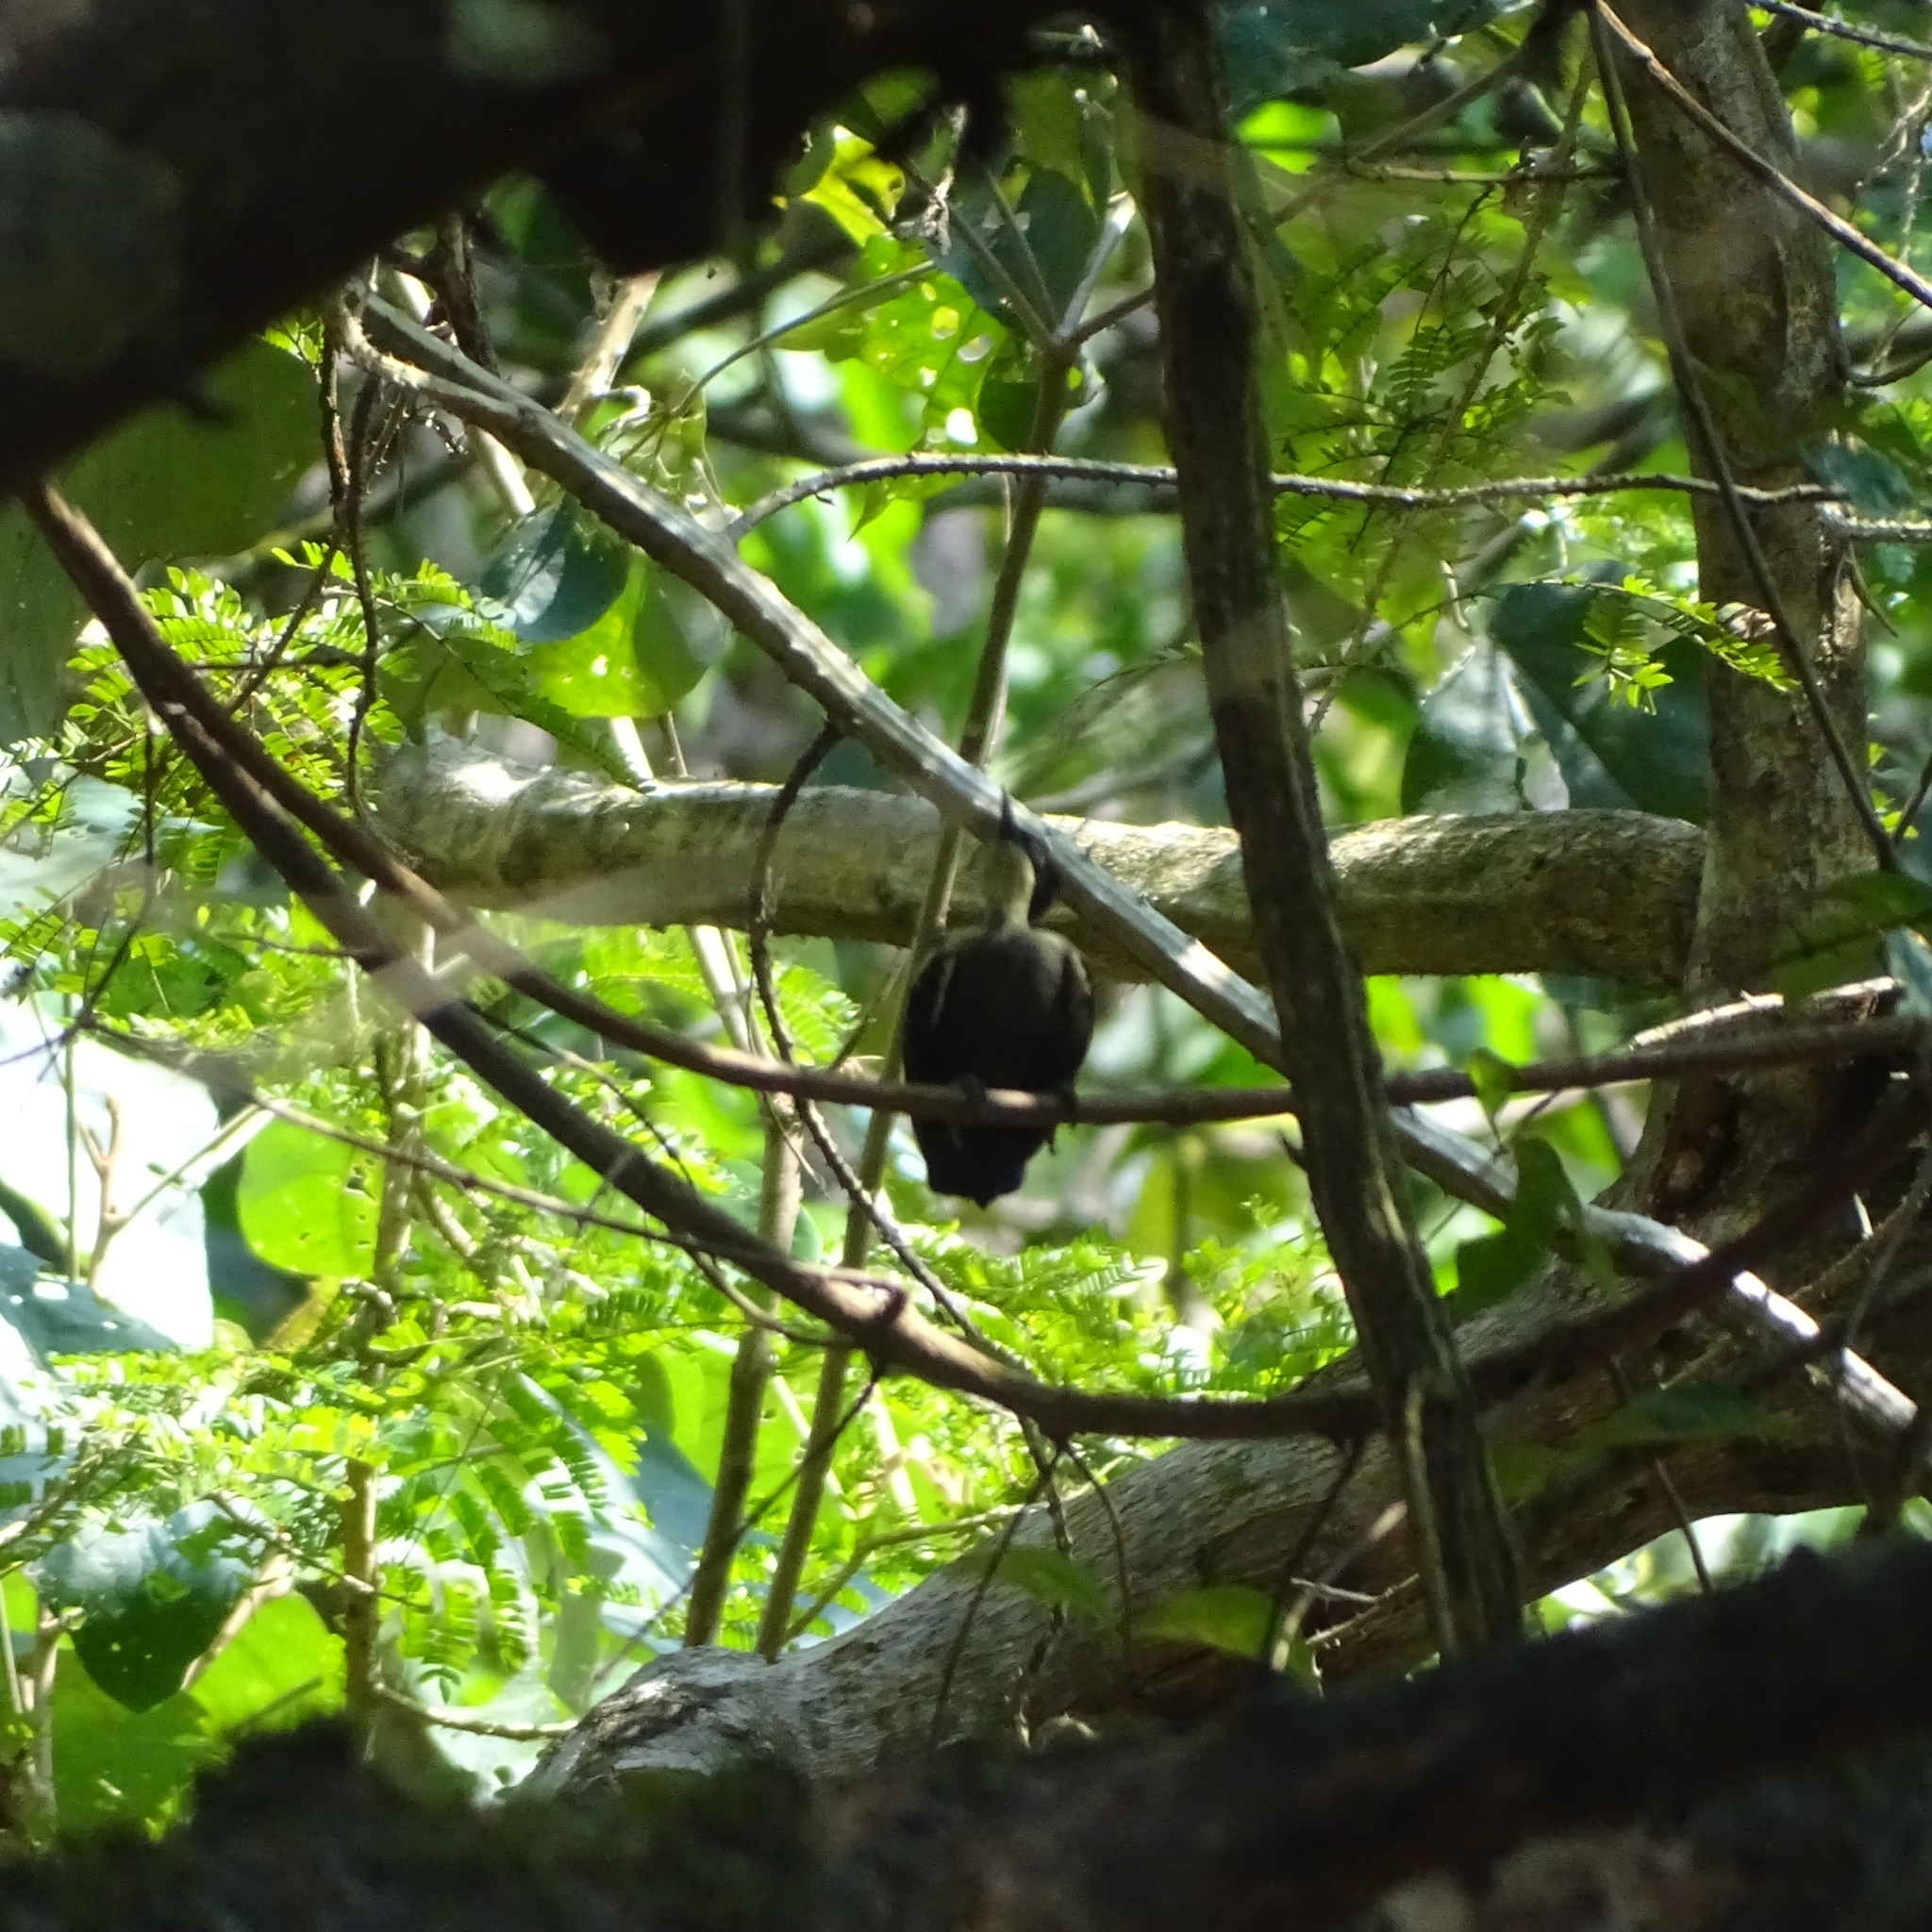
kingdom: Animalia
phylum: Chordata
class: Aves
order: Piciformes
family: Picidae
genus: Hemicircus
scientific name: Hemicircus canente
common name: Heart-spotted woodpecker
